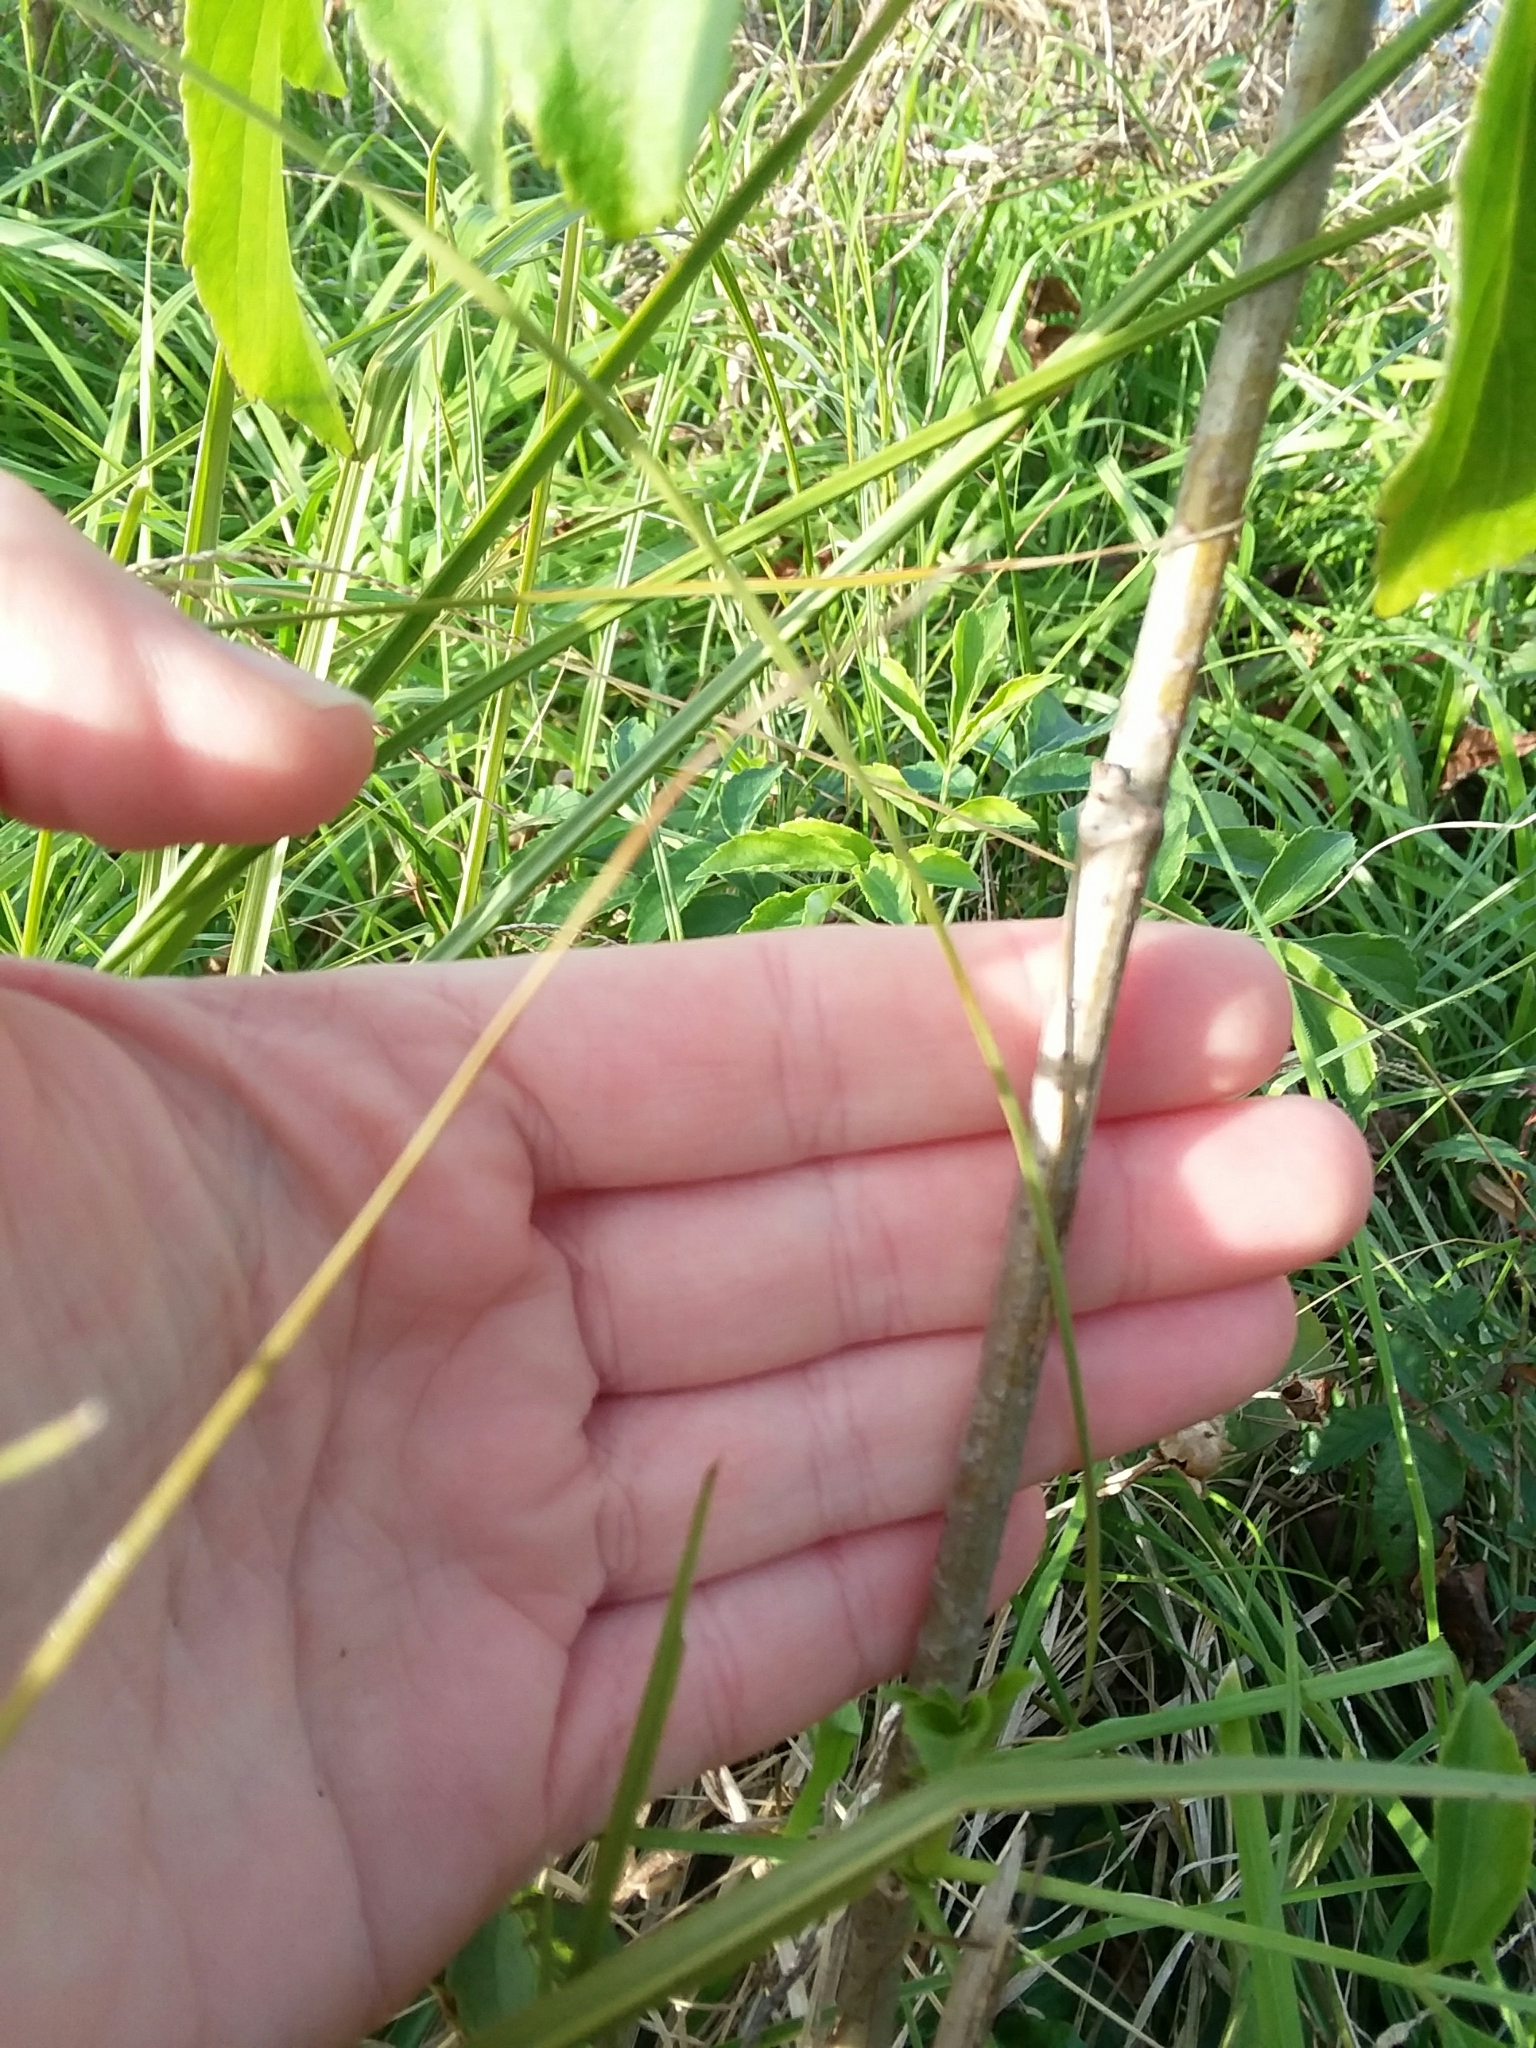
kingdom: Plantae
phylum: Tracheophyta
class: Magnoliopsida
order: Dipsacales
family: Viburnaceae
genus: Sambucus
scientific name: Sambucus canadensis
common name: American elder
